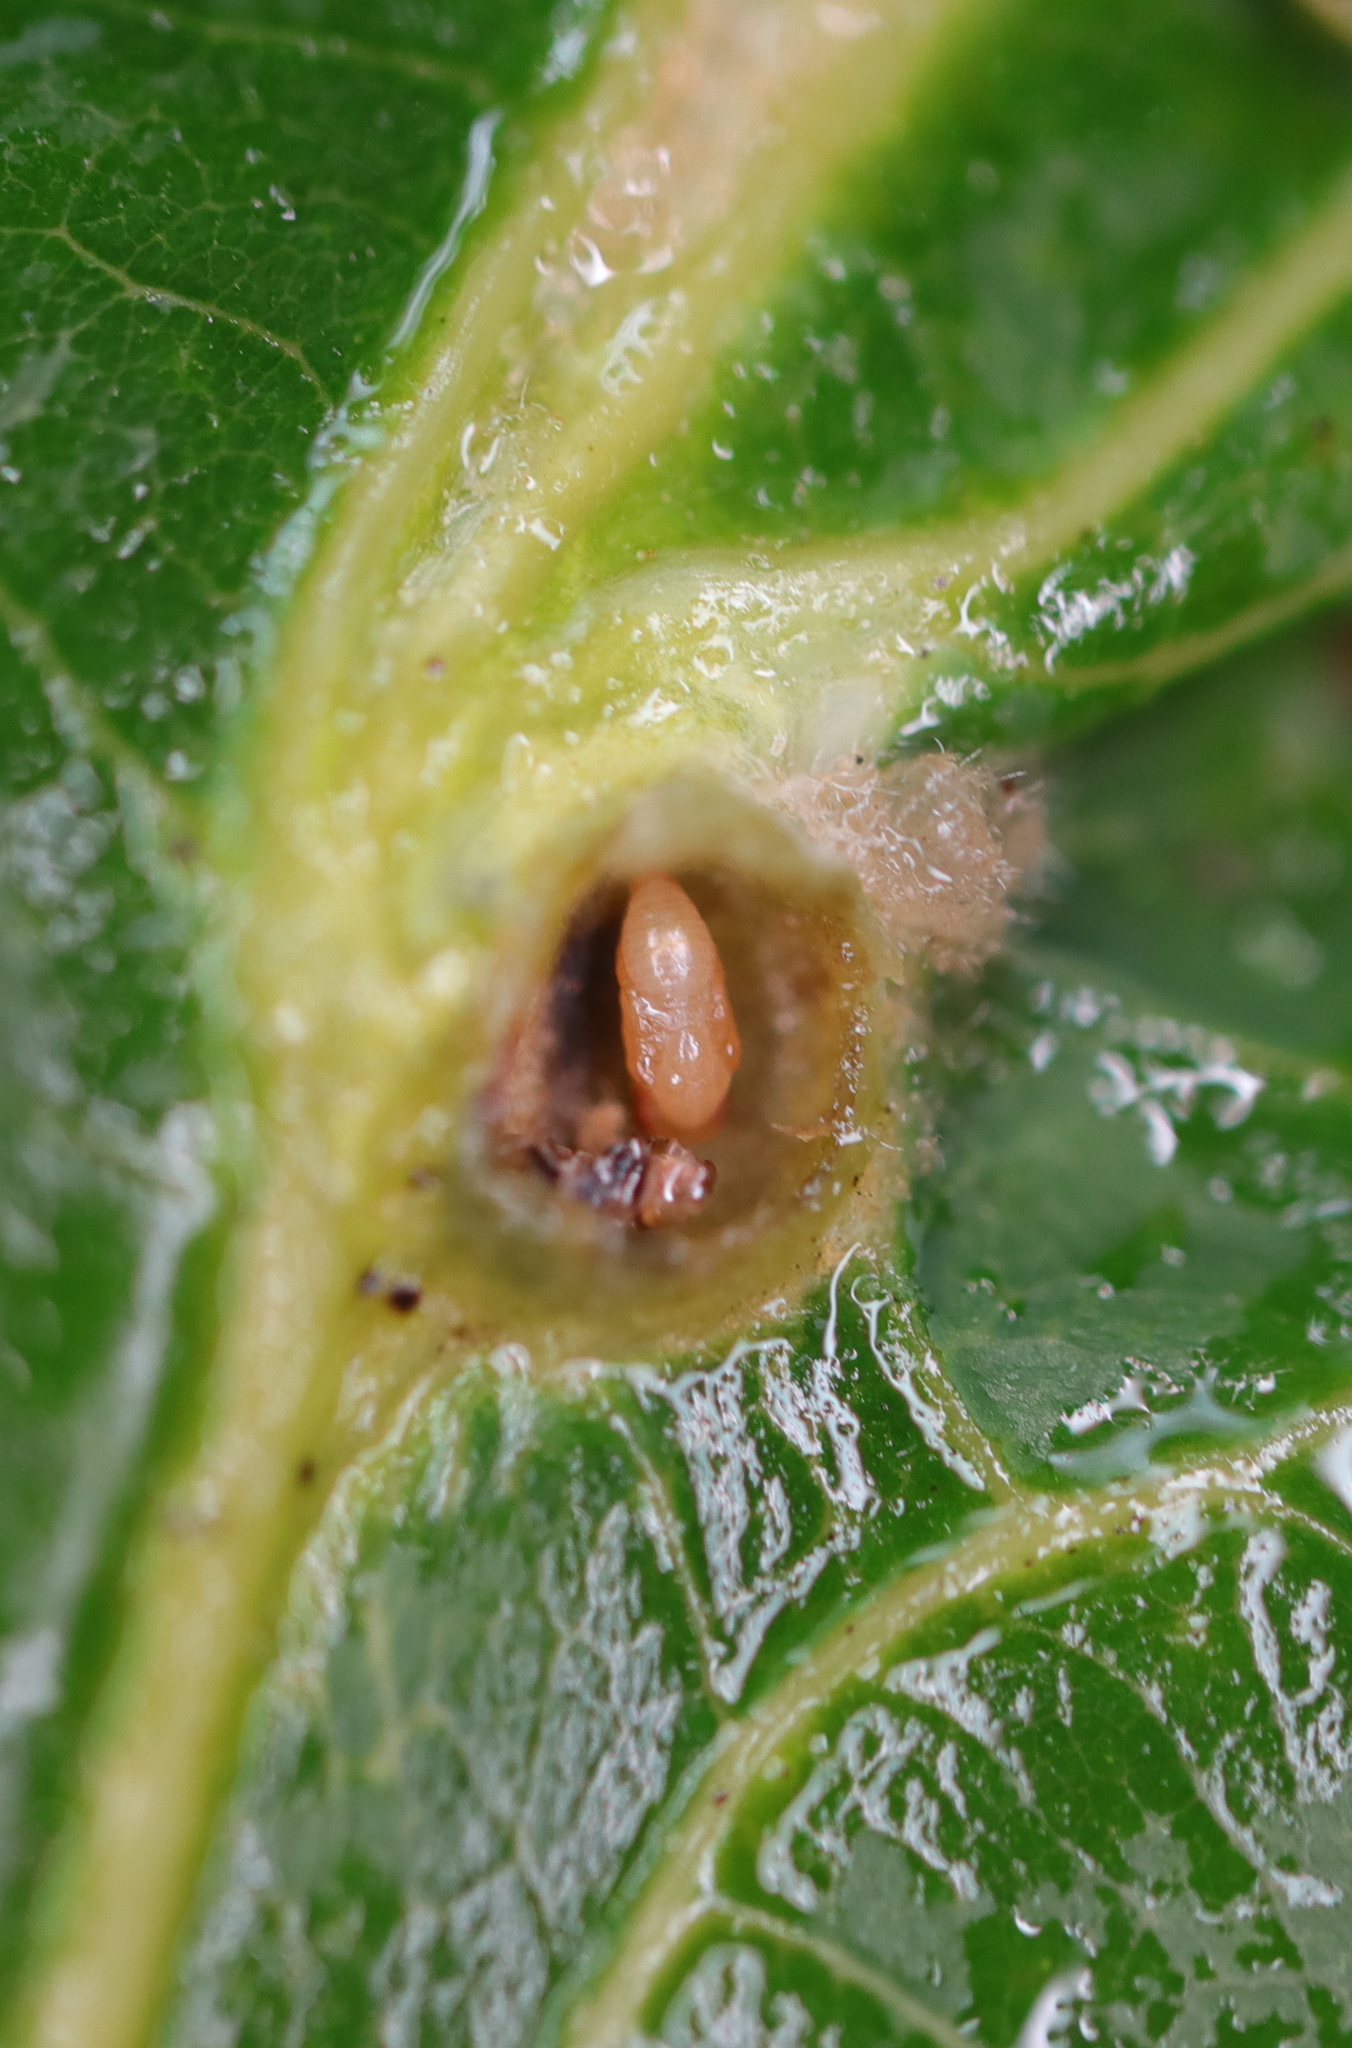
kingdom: Animalia
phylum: Arthropoda
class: Insecta
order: Hymenoptera
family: Cynipidae
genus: Andricus
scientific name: Andricus
